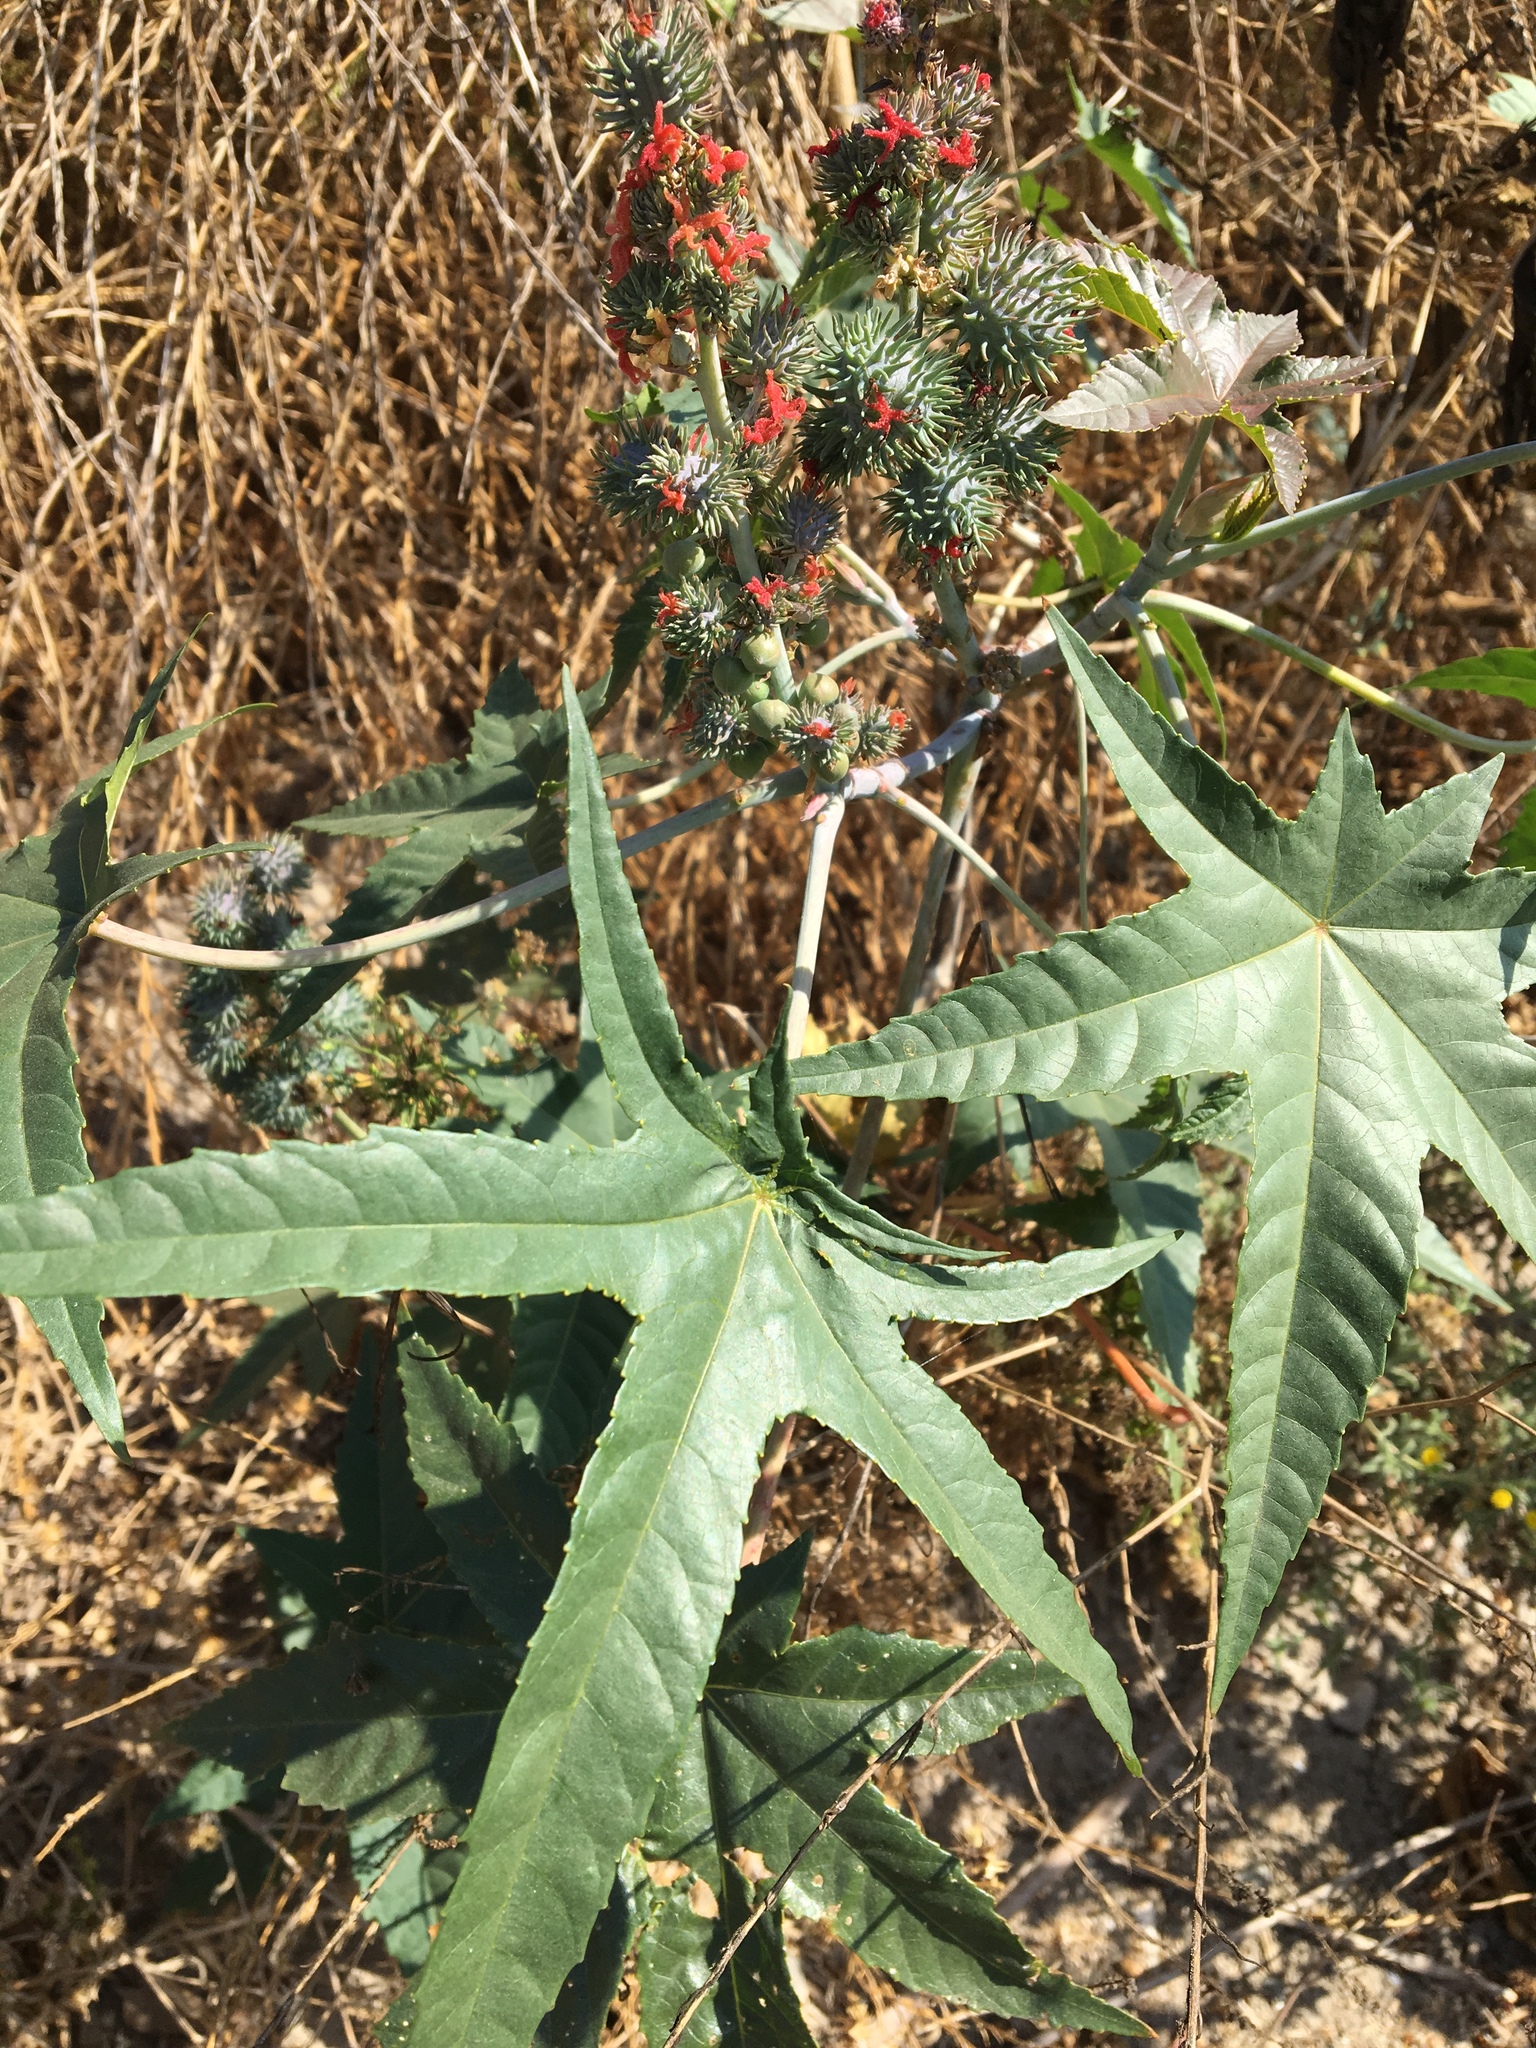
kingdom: Plantae
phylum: Tracheophyta
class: Magnoliopsida
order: Malpighiales
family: Euphorbiaceae
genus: Ricinus
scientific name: Ricinus communis
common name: Castor-oil-plant
